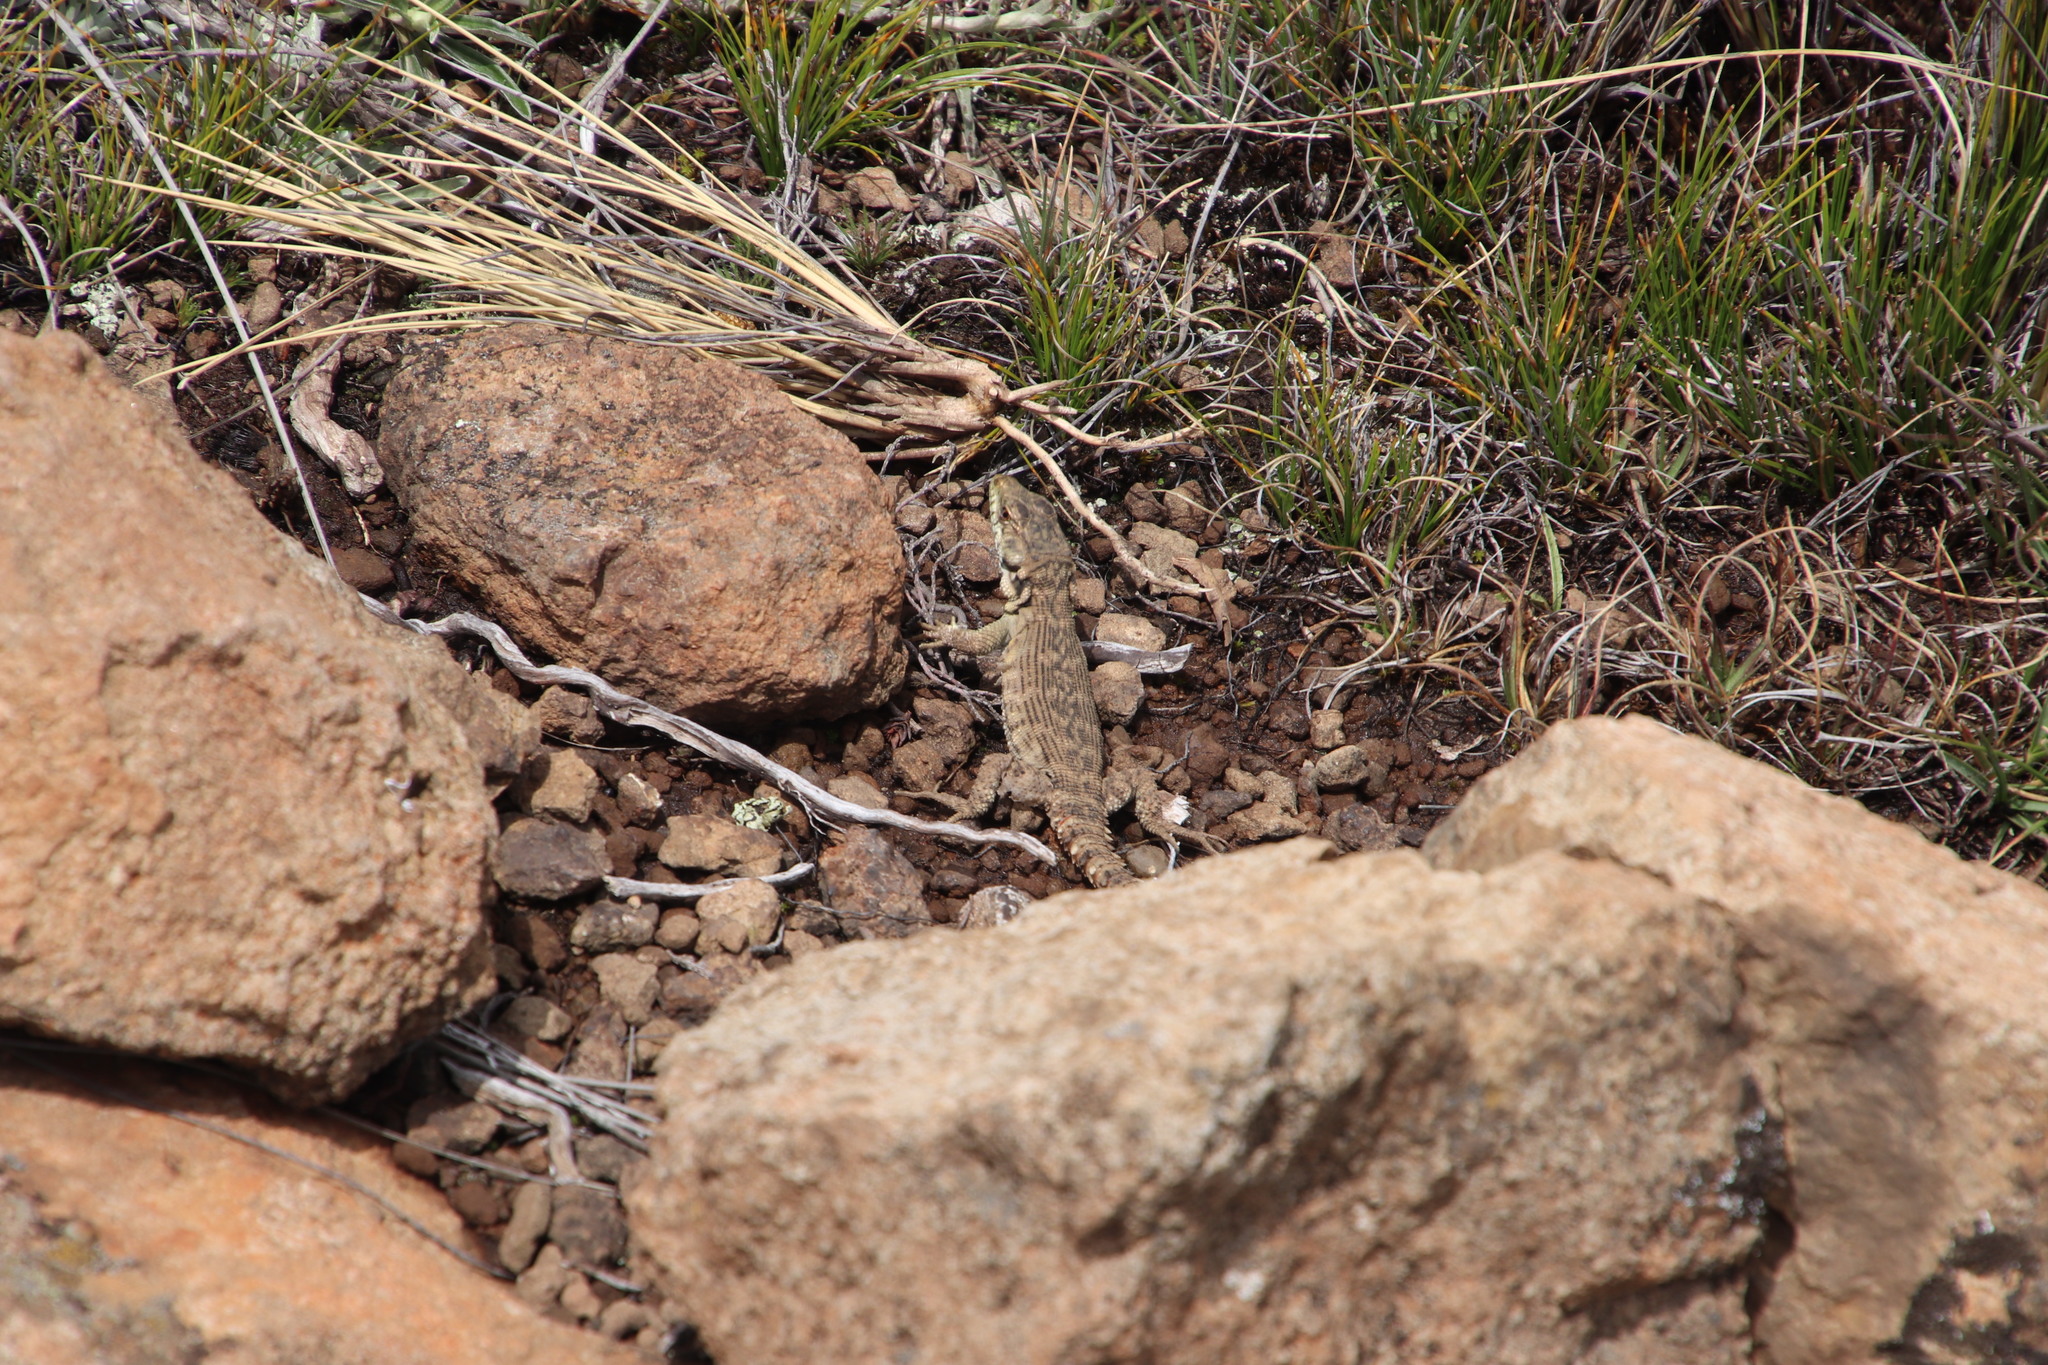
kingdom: Animalia
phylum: Chordata
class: Squamata
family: Cordylidae
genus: Pseudocordylus
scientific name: Pseudocordylus subviridis
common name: Drakensberg crag lizard
